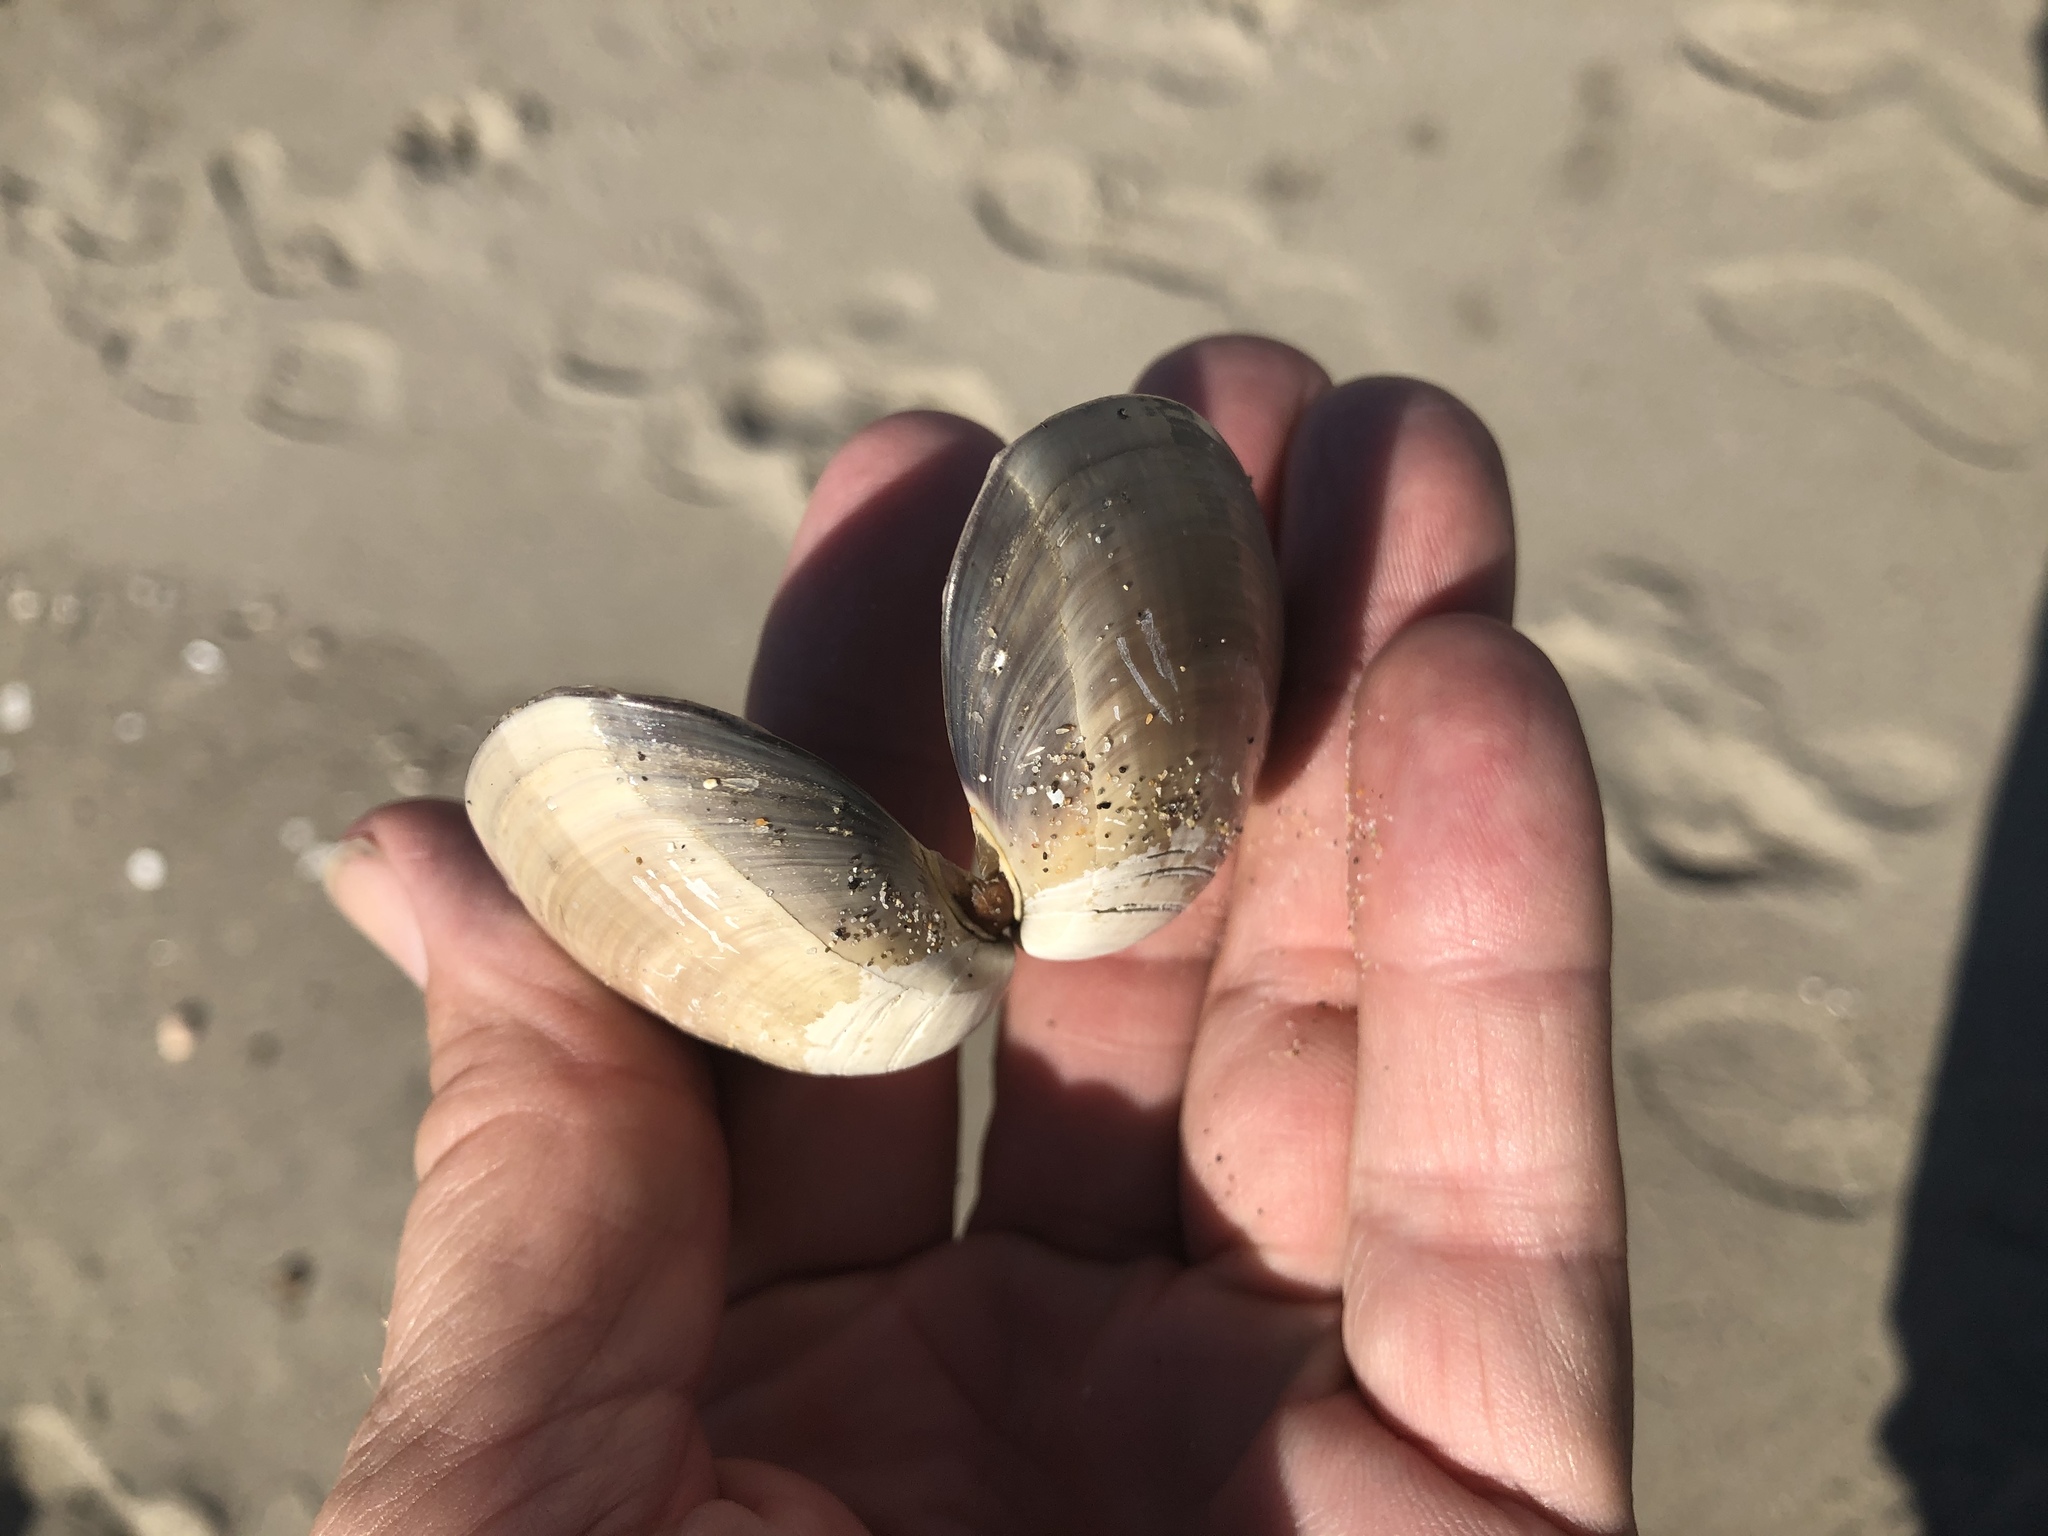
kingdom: Animalia
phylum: Mollusca
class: Bivalvia
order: Venerida
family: Veneridae
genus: Tivela
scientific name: Tivela stultorum
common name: Pismo clam
